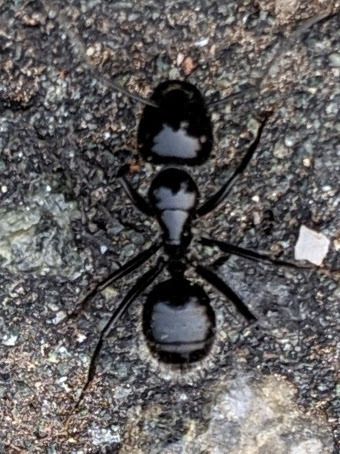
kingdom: Animalia
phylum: Arthropoda
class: Insecta
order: Hymenoptera
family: Formicidae
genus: Camponotus
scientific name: Camponotus
